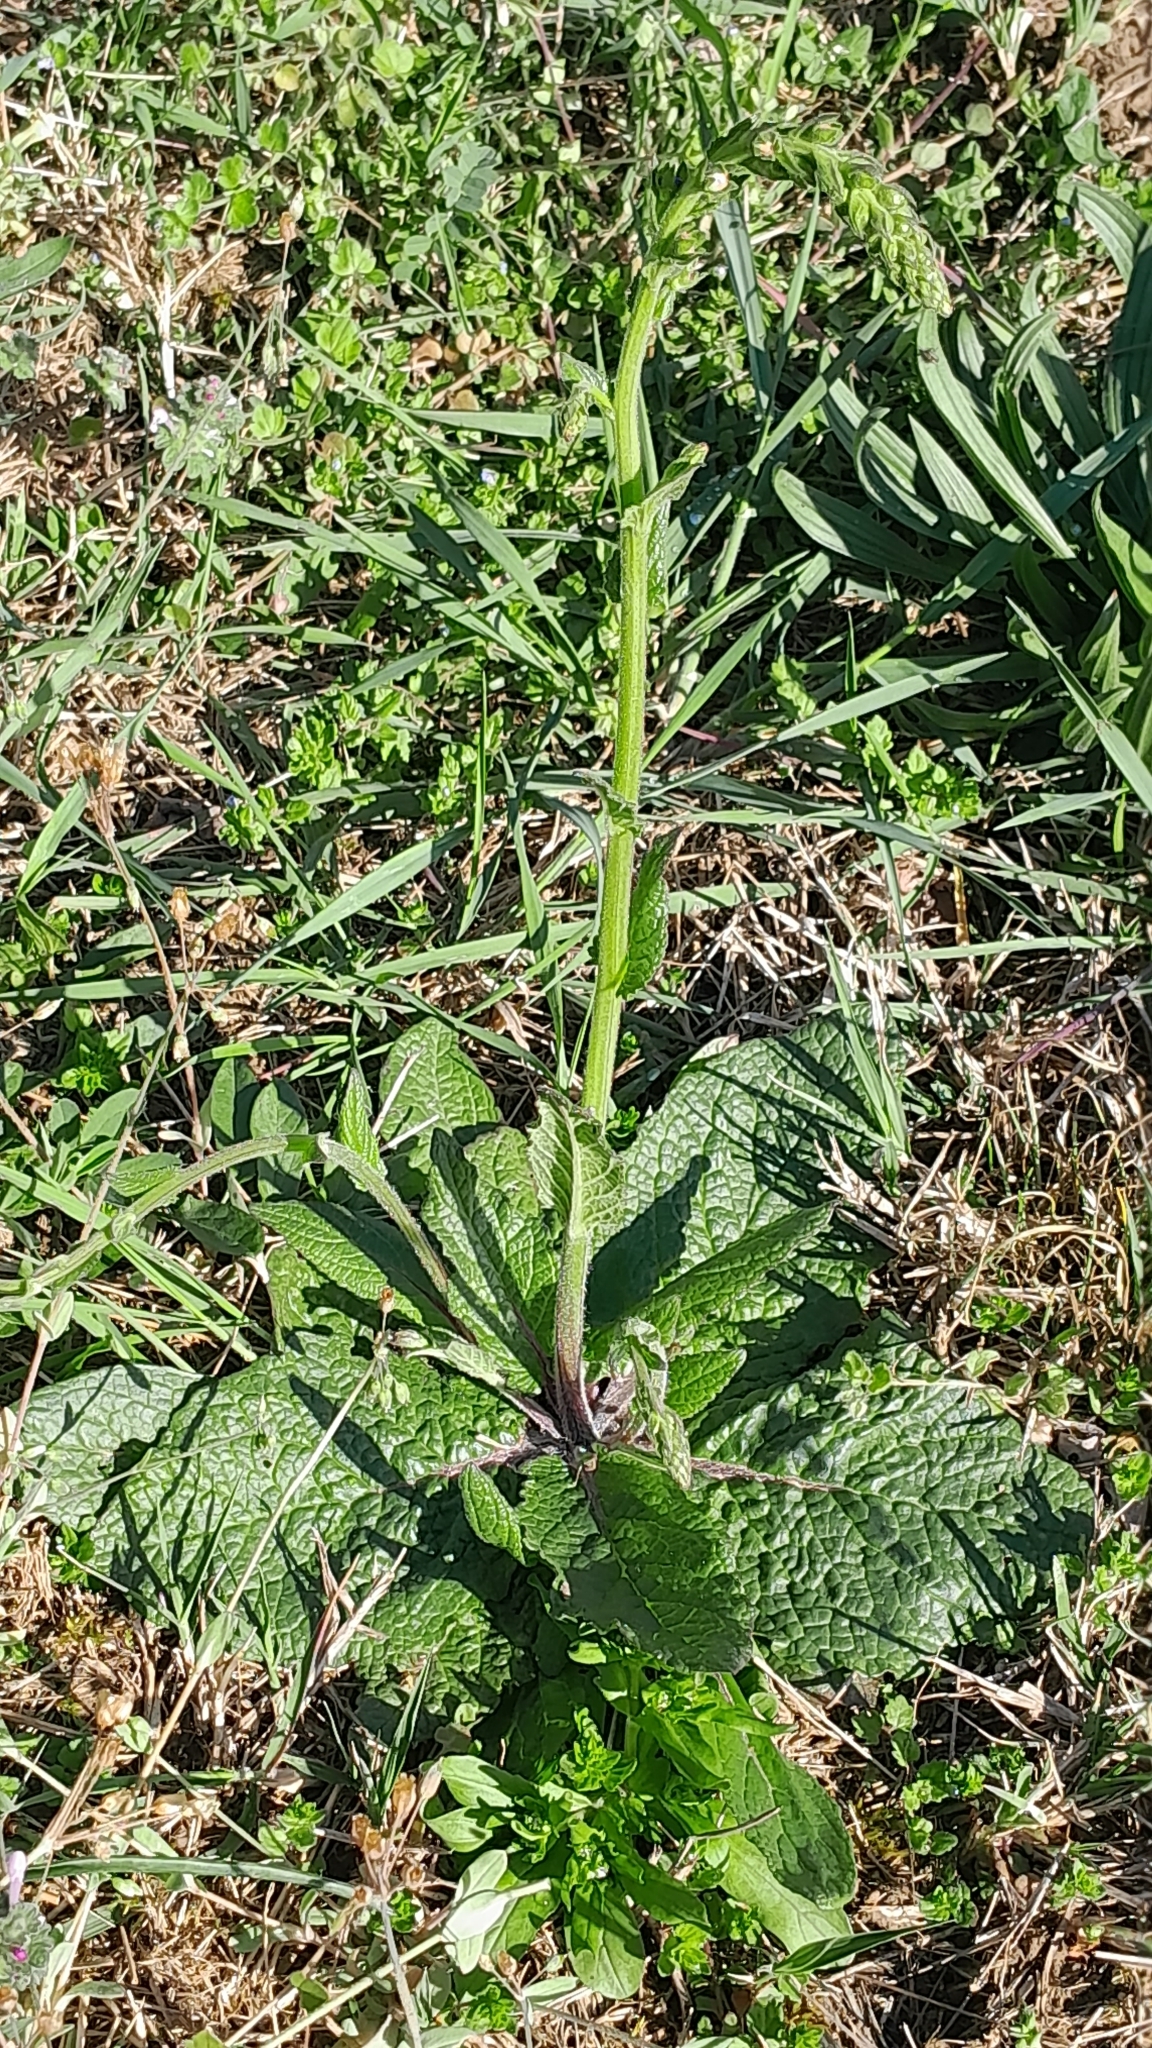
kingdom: Plantae
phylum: Tracheophyta
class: Magnoliopsida
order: Lamiales
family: Scrophulariaceae
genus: Verbascum
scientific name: Verbascum phoeniceum
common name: Purple mullein
